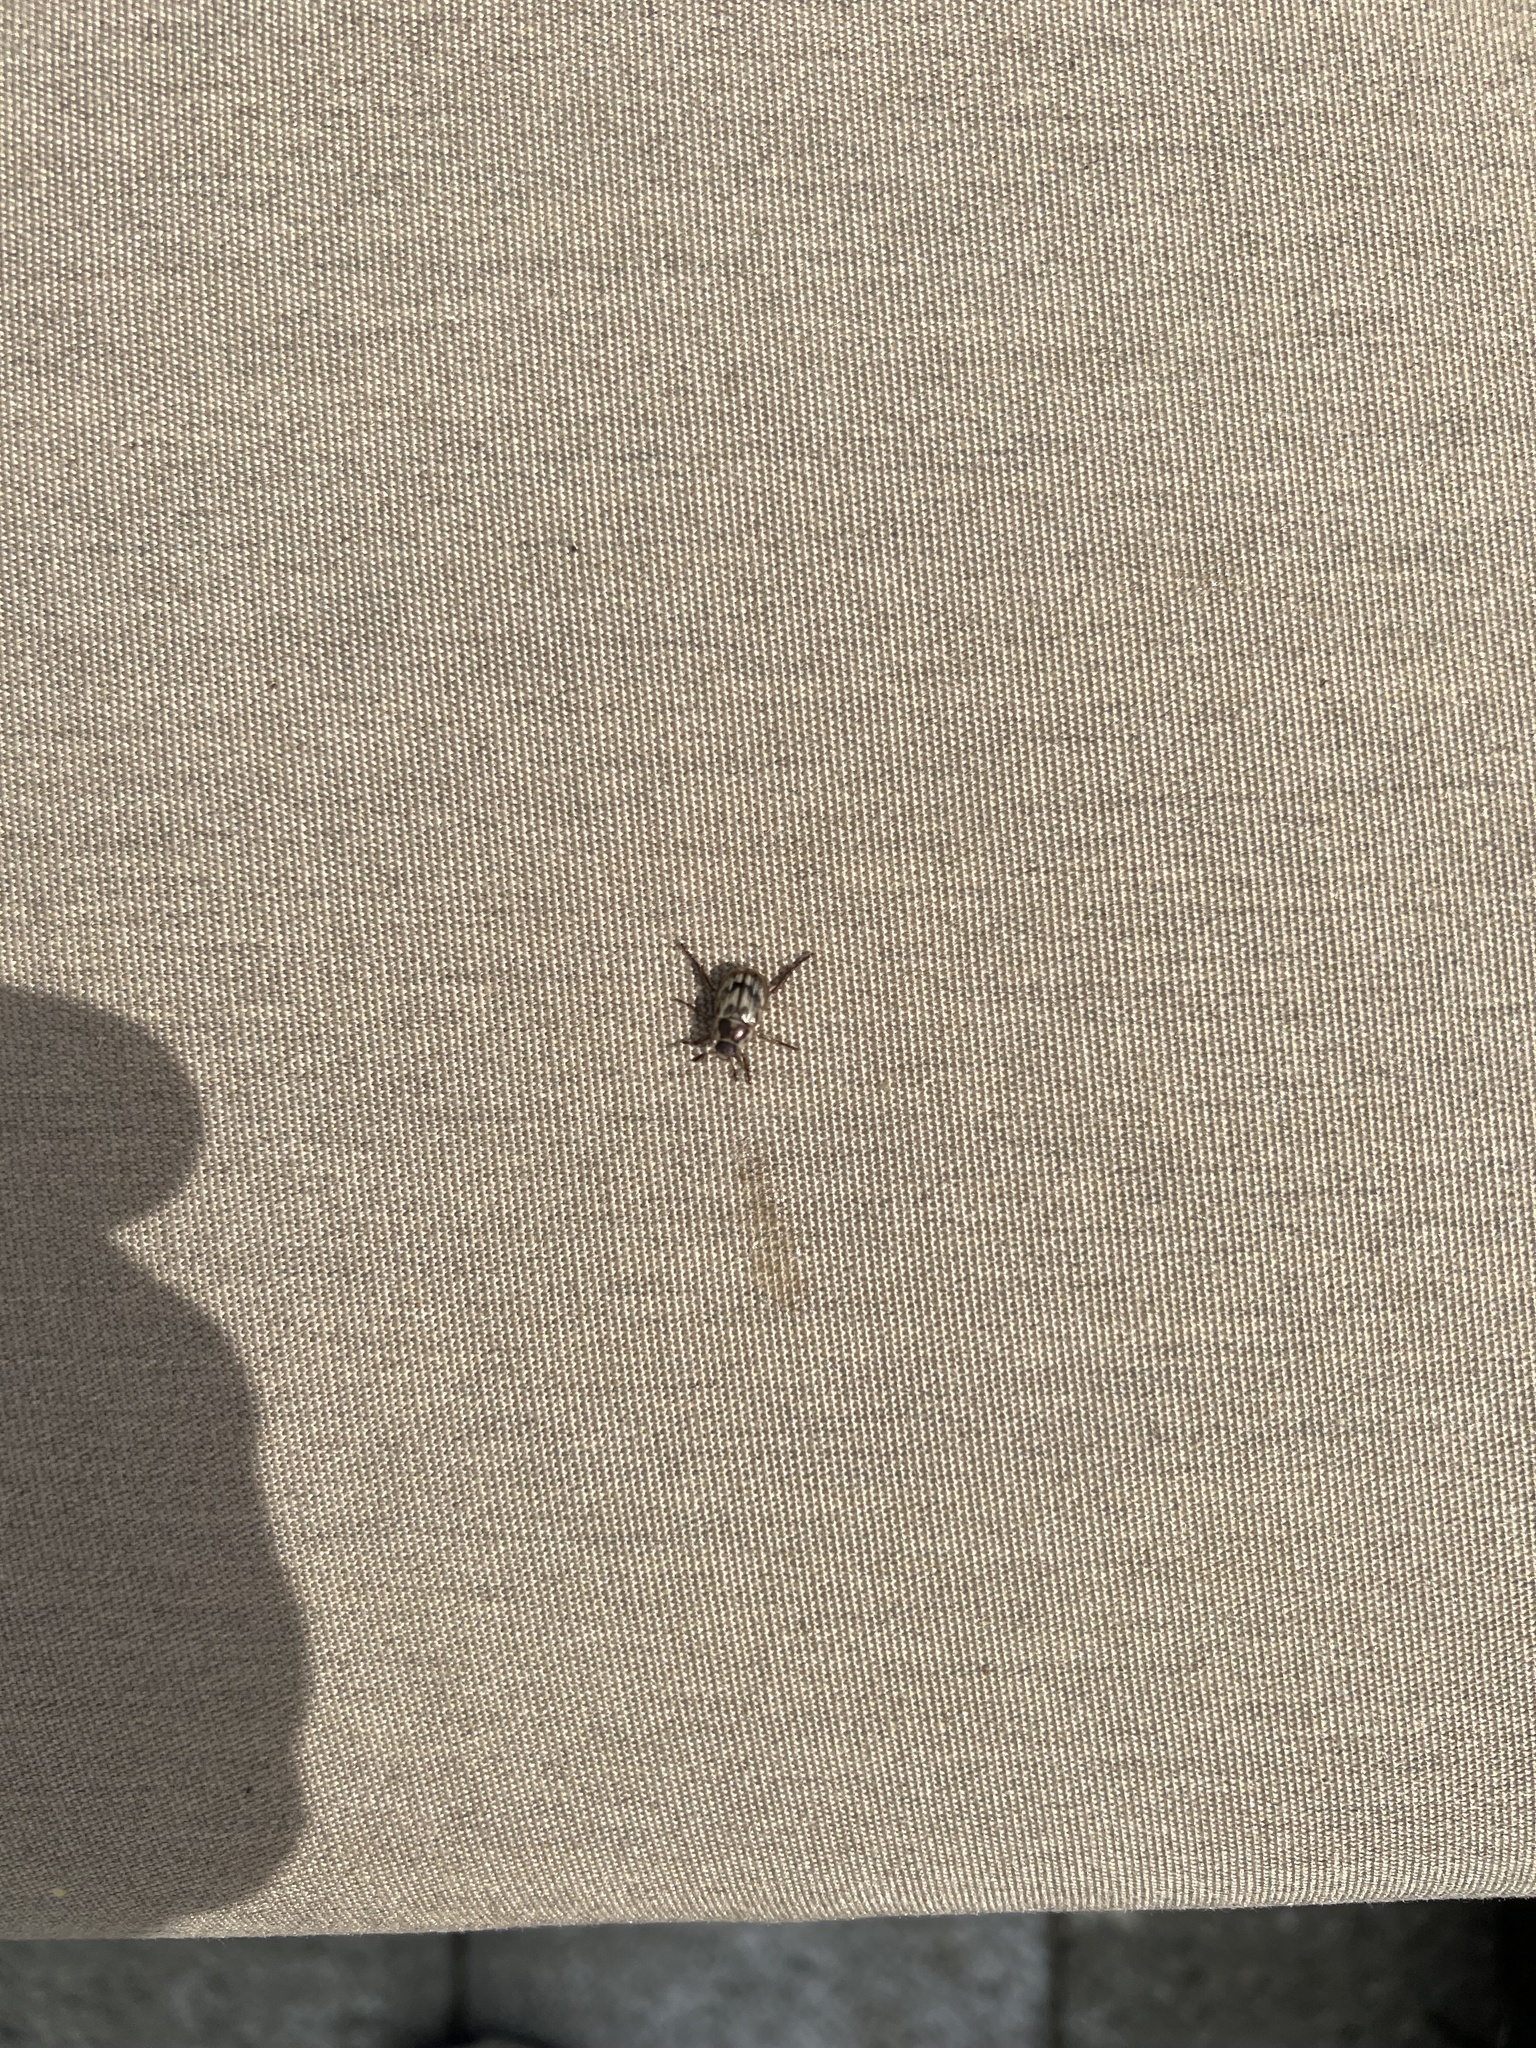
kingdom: Animalia
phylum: Arthropoda
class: Insecta
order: Coleoptera
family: Scarabaeidae
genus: Exomala
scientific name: Exomala orientalis
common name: Oriental beetle
